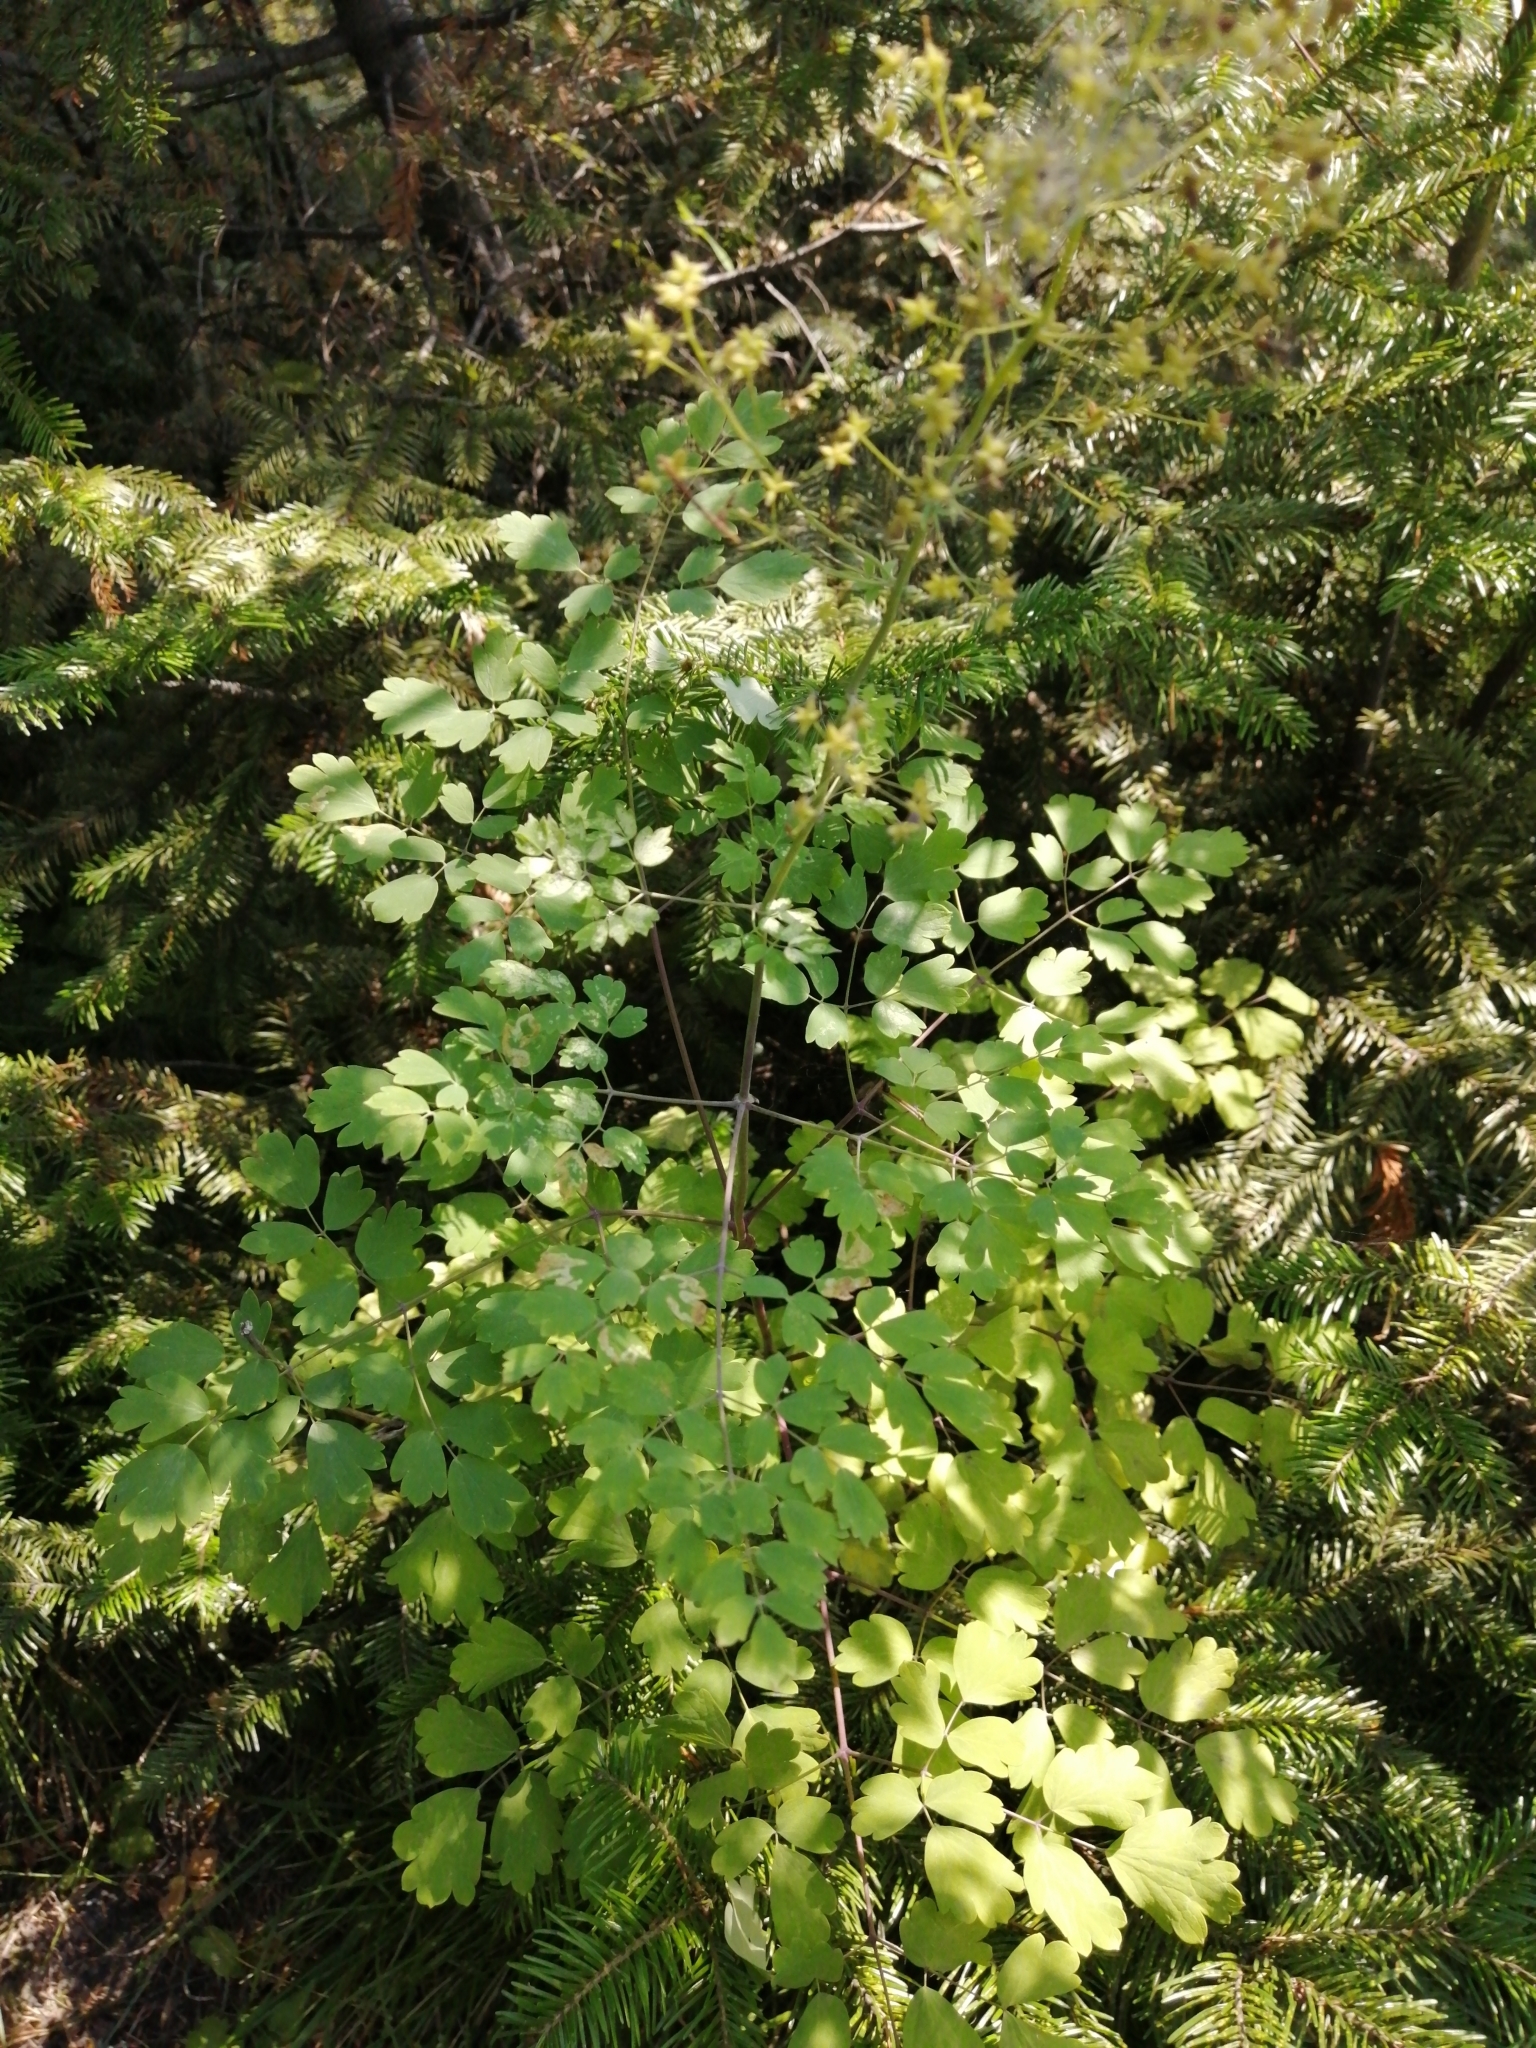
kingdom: Plantae
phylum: Tracheophyta
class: Magnoliopsida
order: Ranunculales
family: Ranunculaceae
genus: Thalictrum
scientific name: Thalictrum minus
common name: Lesser meadow-rue
